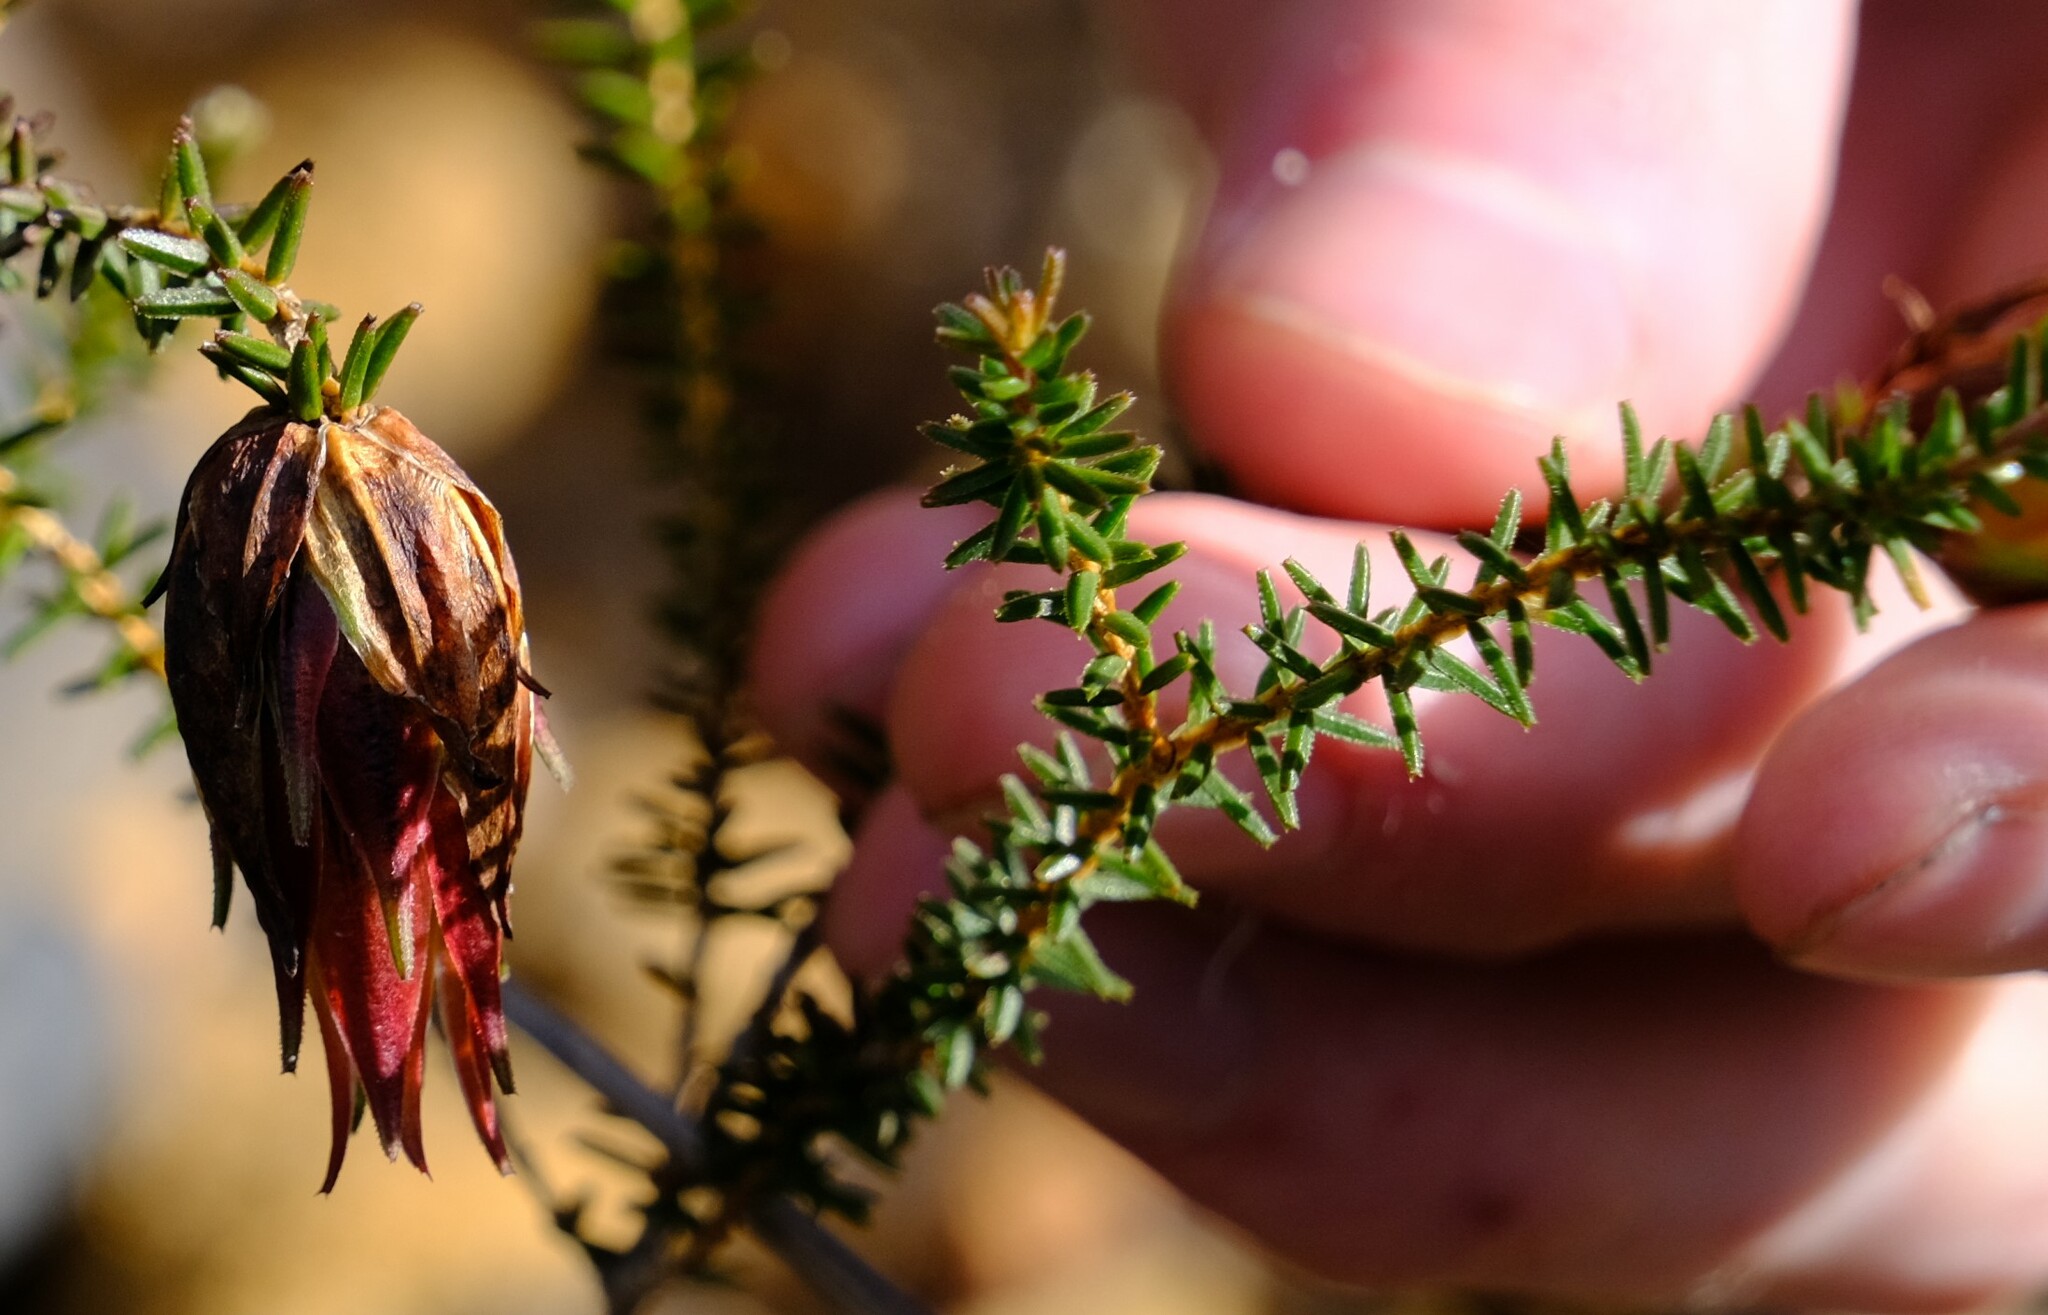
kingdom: Plantae
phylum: Tracheophyta
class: Magnoliopsida
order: Myrtales
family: Myrtaceae
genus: Darwinia
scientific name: Darwinia helichrysoides
